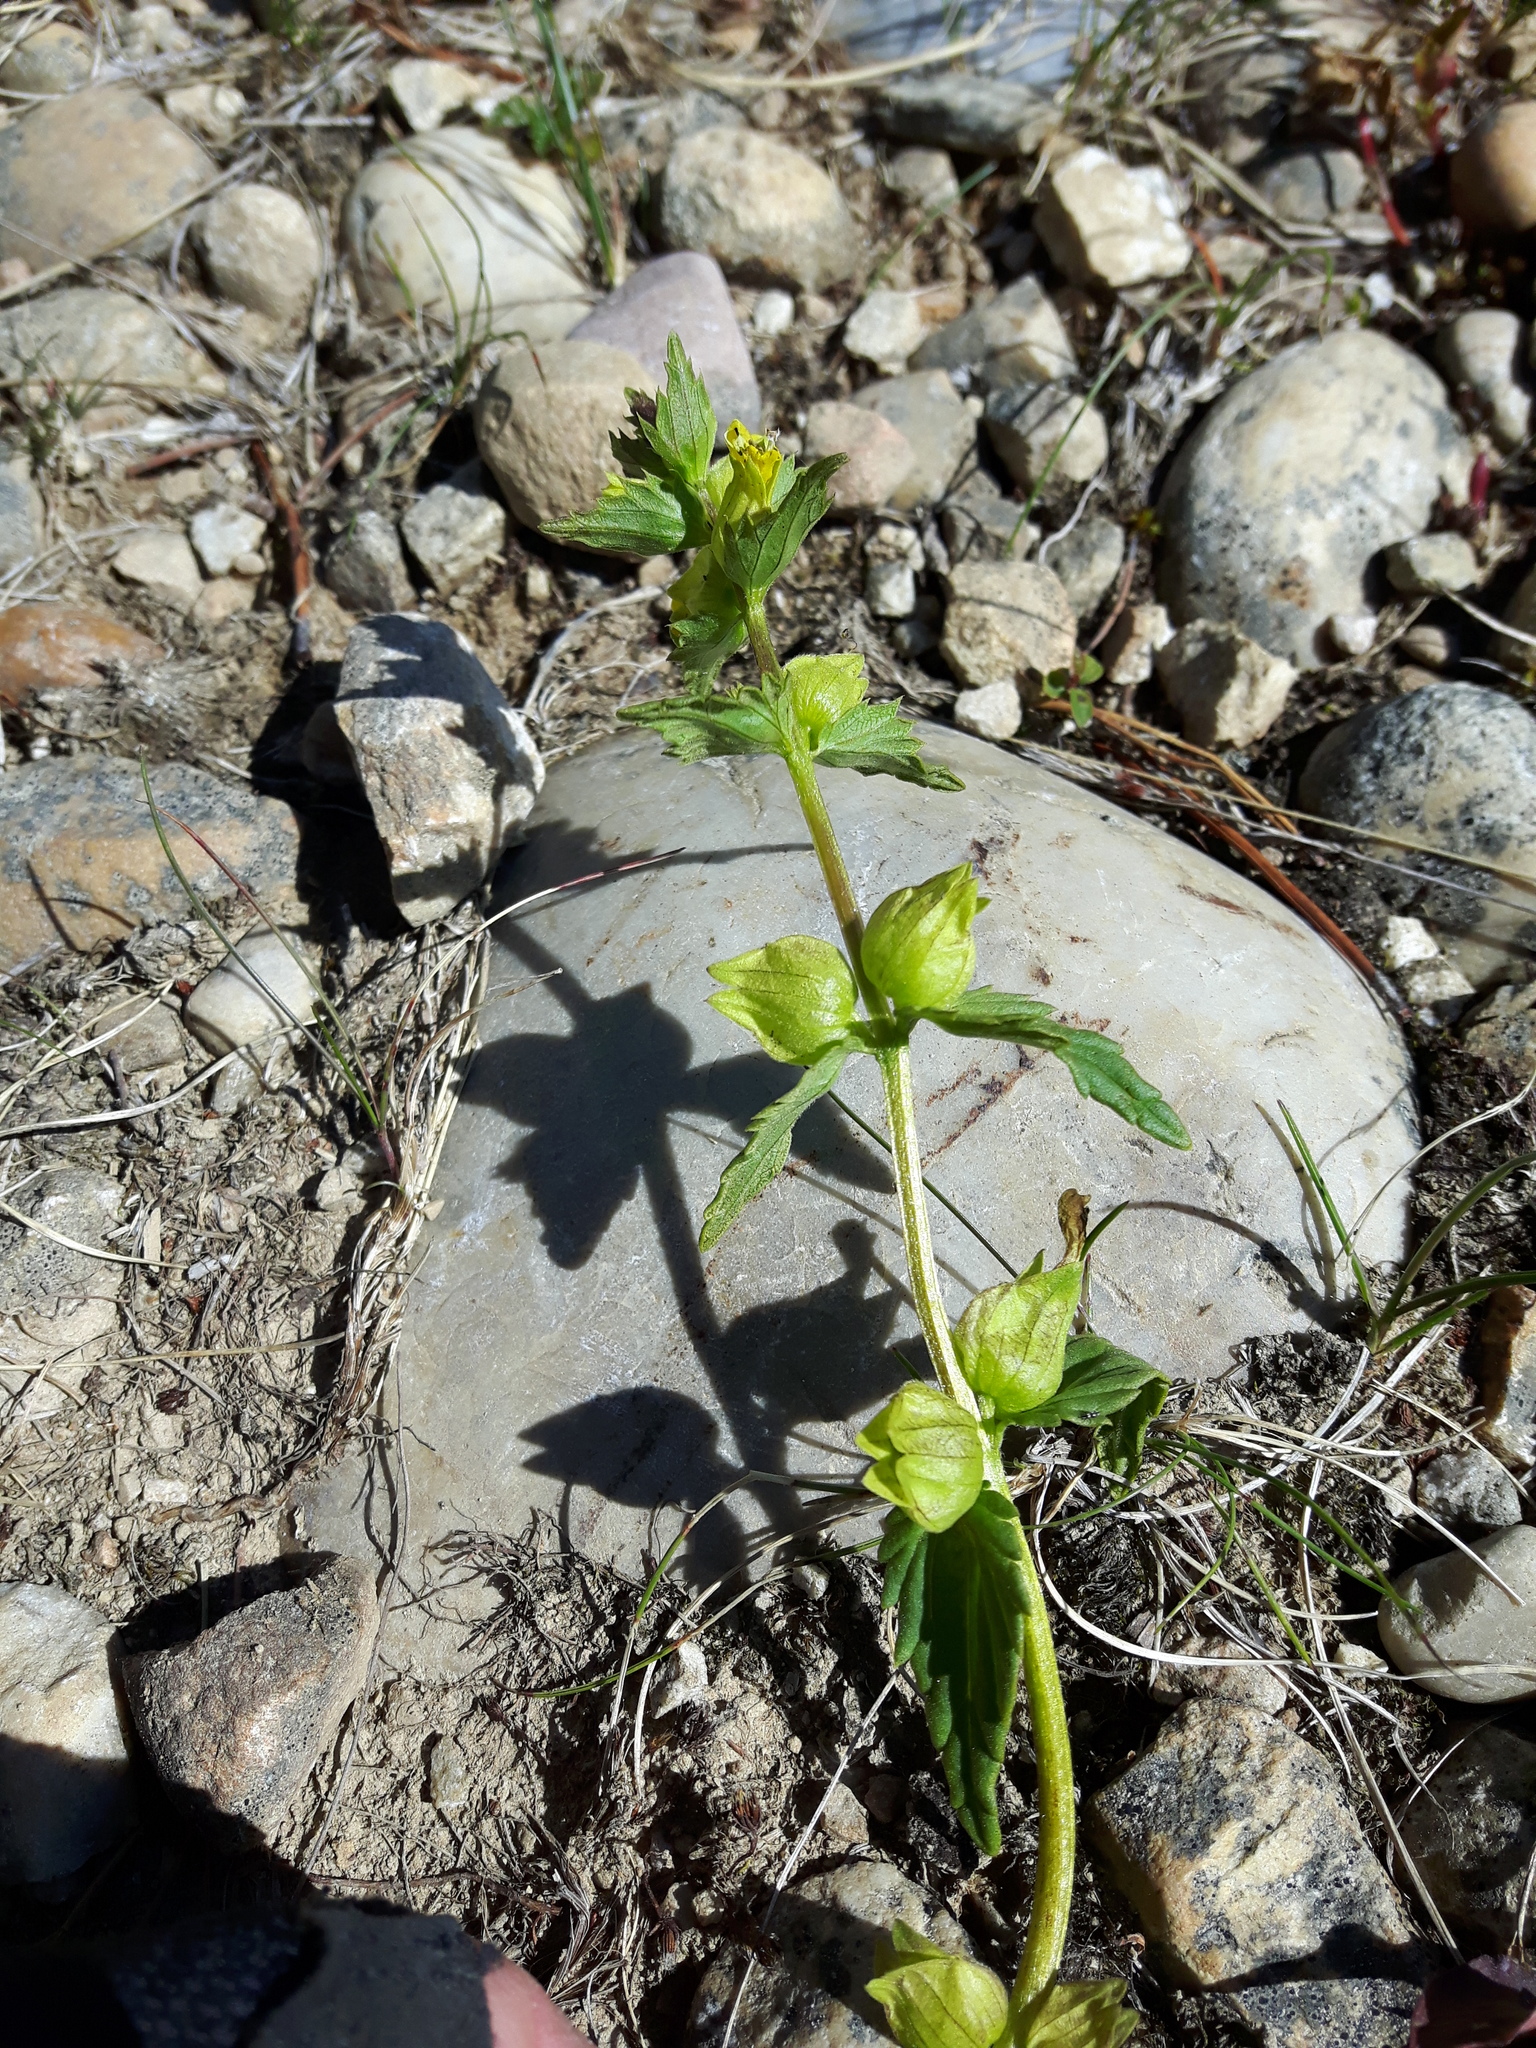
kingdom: Plantae
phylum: Tracheophyta
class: Magnoliopsida
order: Lamiales
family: Orobanchaceae
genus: Rhinanthus
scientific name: Rhinanthus groenlandicus
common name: Little yellow rattle
